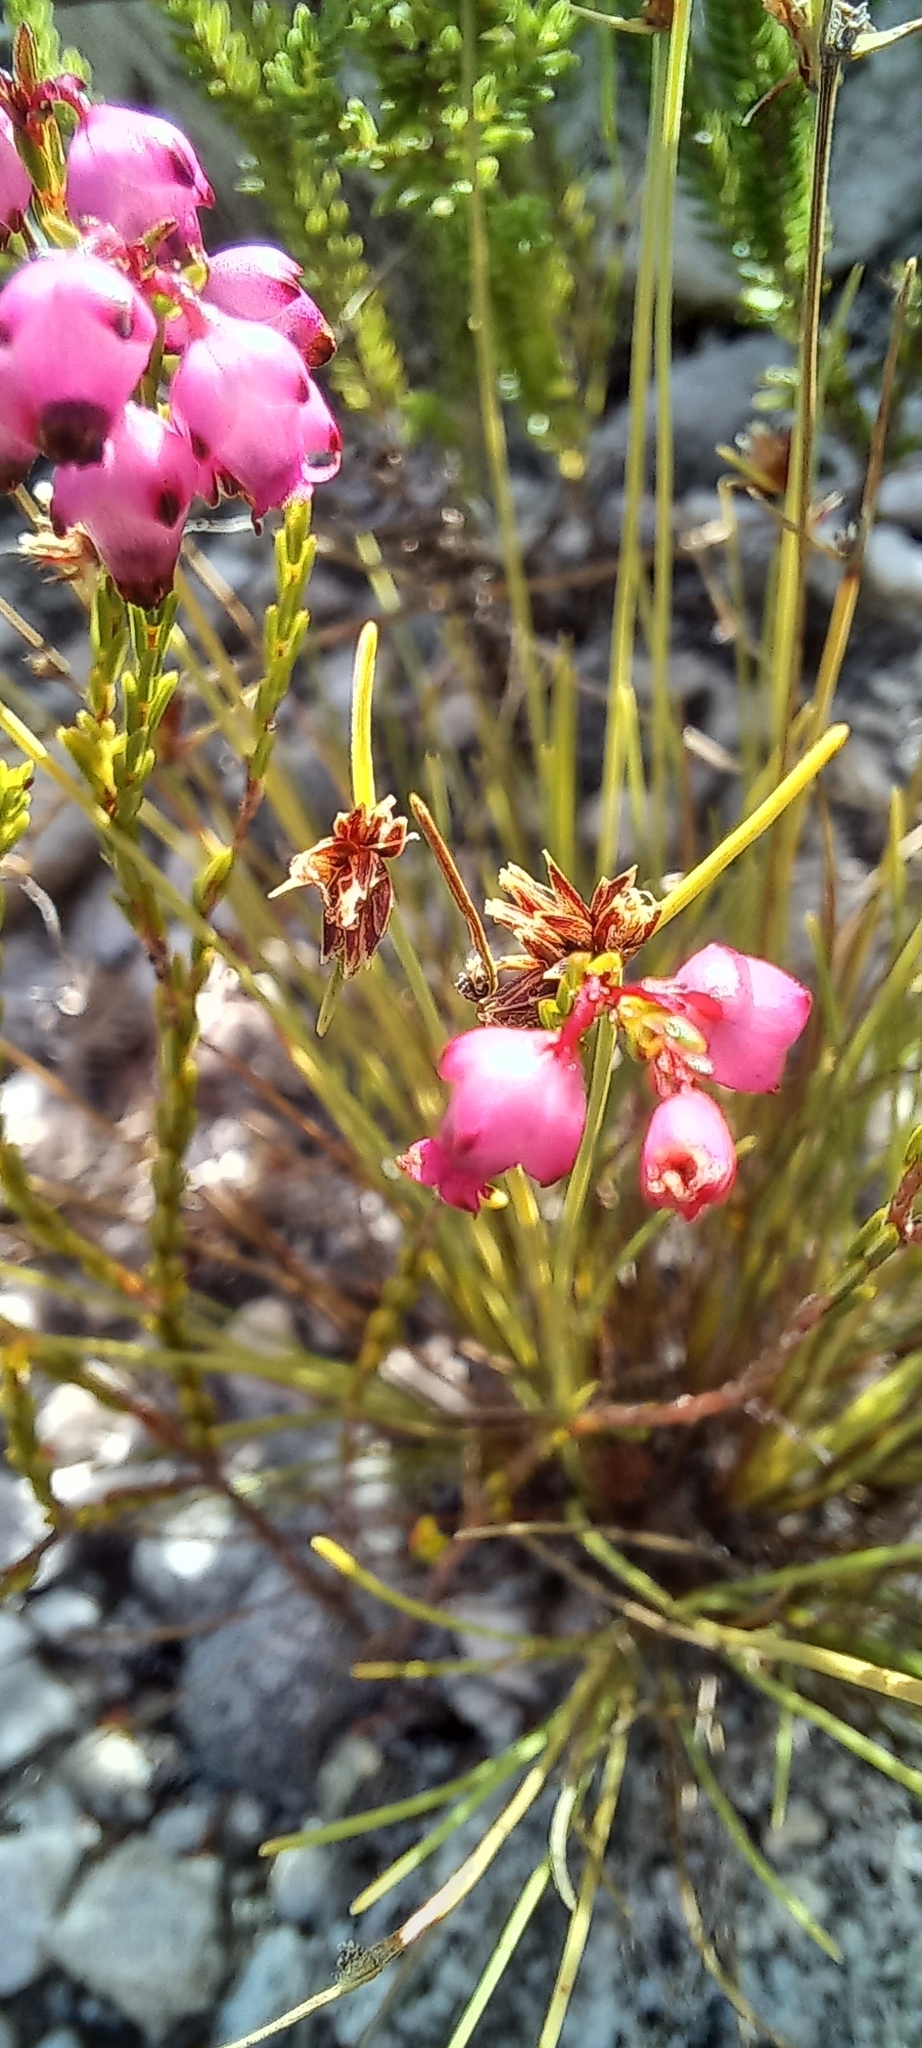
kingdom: Plantae
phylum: Tracheophyta
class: Magnoliopsida
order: Ericales
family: Ericaceae
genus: Erica
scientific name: Erica rhopalantha
